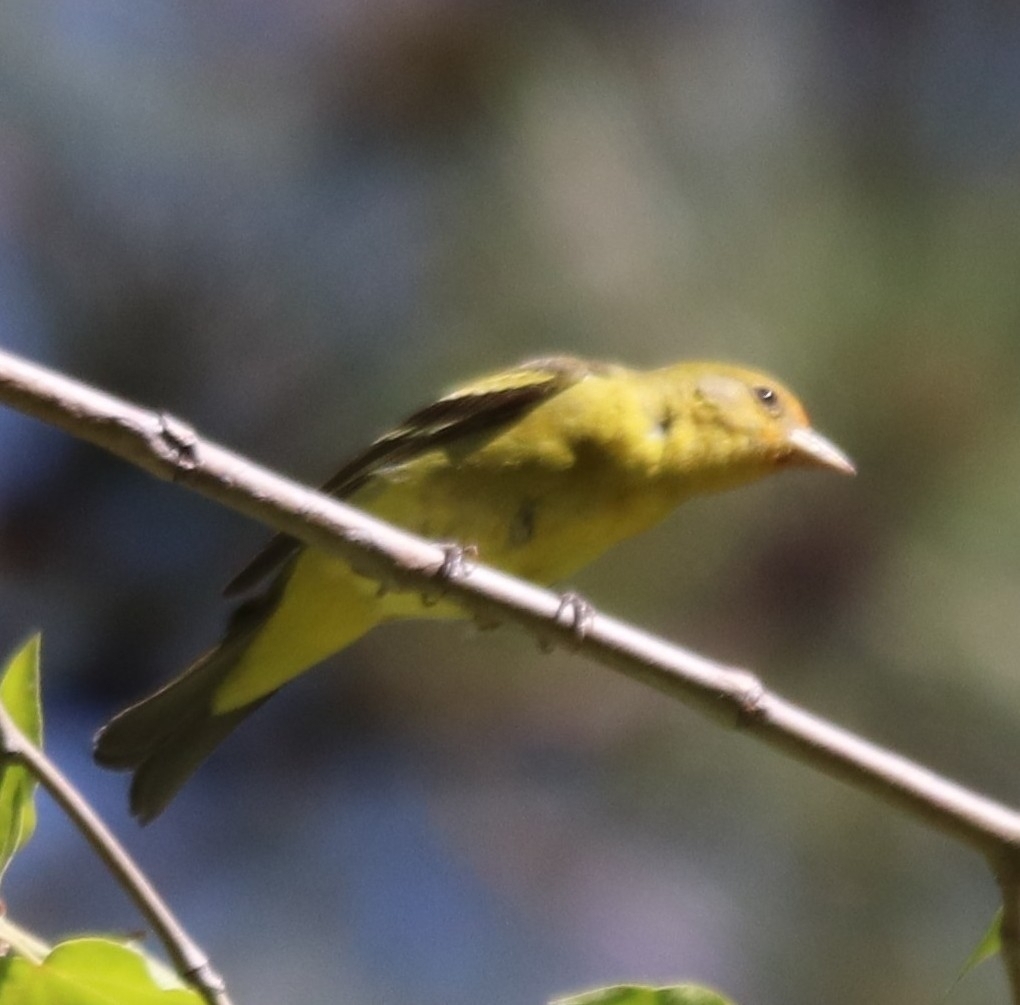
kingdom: Animalia
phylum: Chordata
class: Aves
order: Passeriformes
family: Cardinalidae
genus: Piranga
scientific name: Piranga ludoviciana
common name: Western tanager
